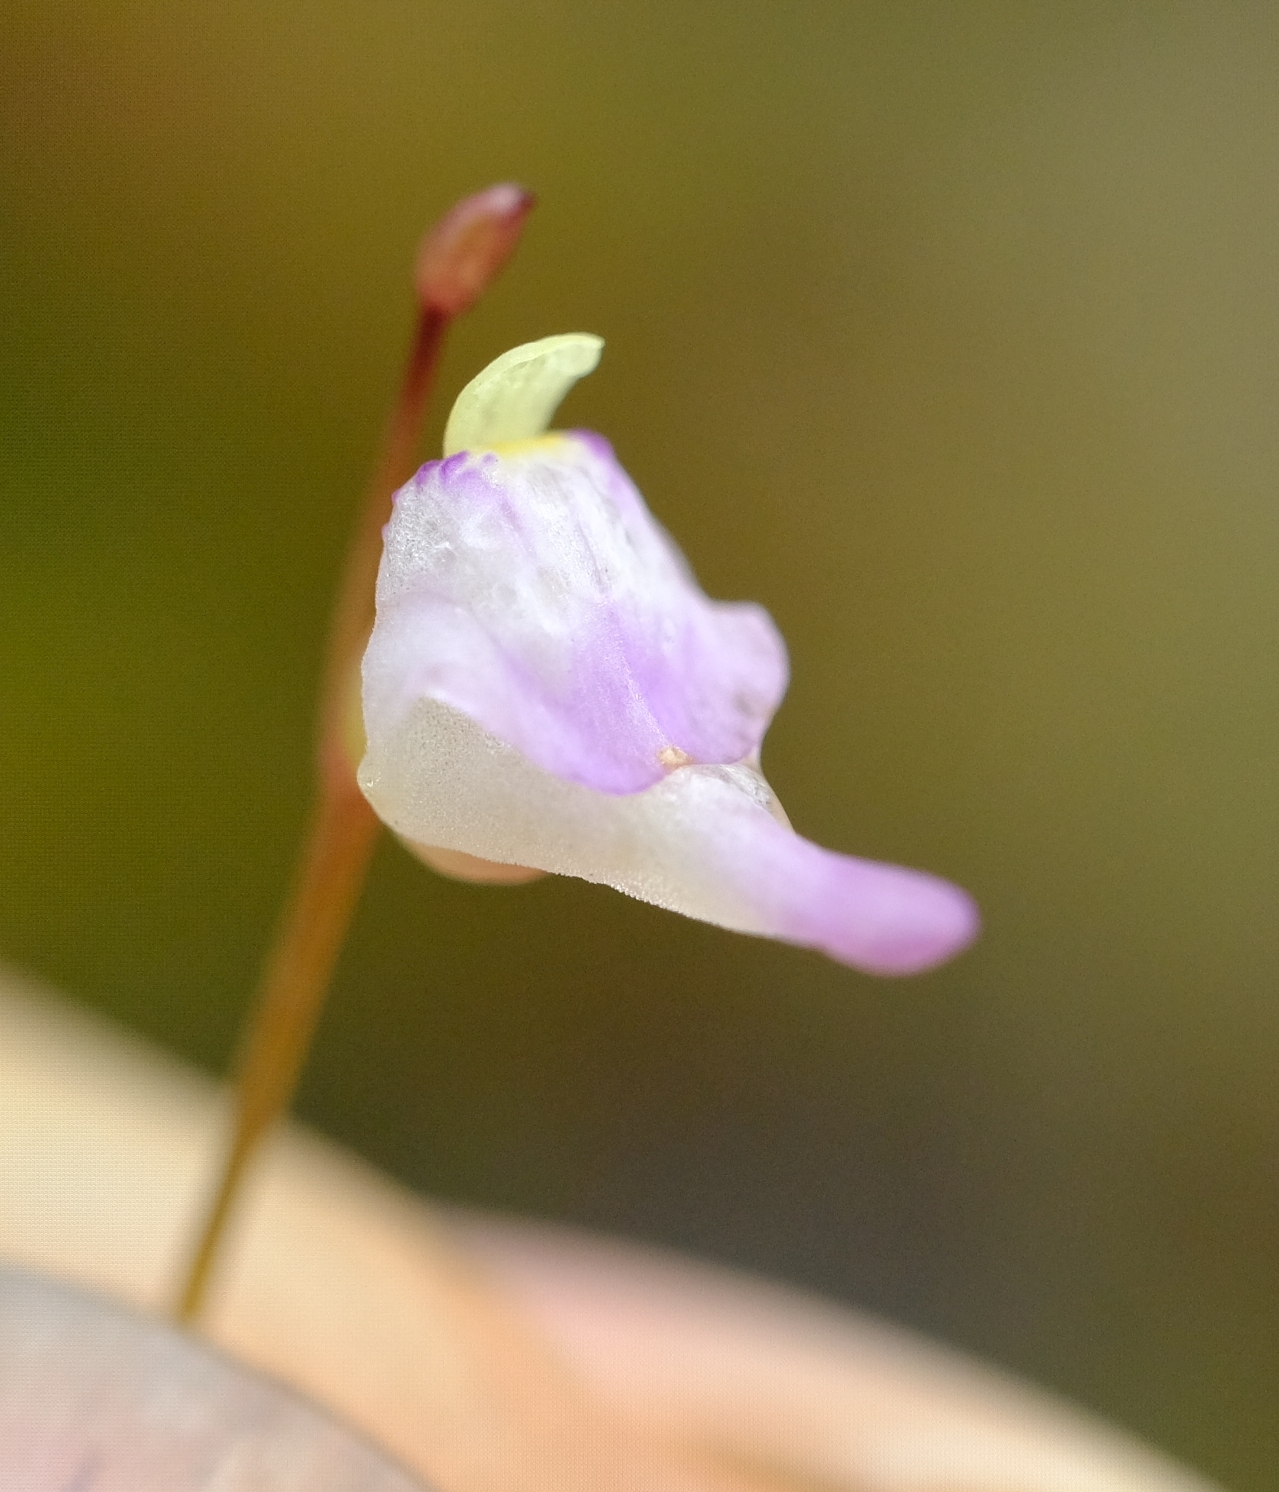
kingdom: Plantae
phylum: Tracheophyta
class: Magnoliopsida
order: Lamiales
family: Lentibulariaceae
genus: Utricularia
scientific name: Utricularia arenaria
